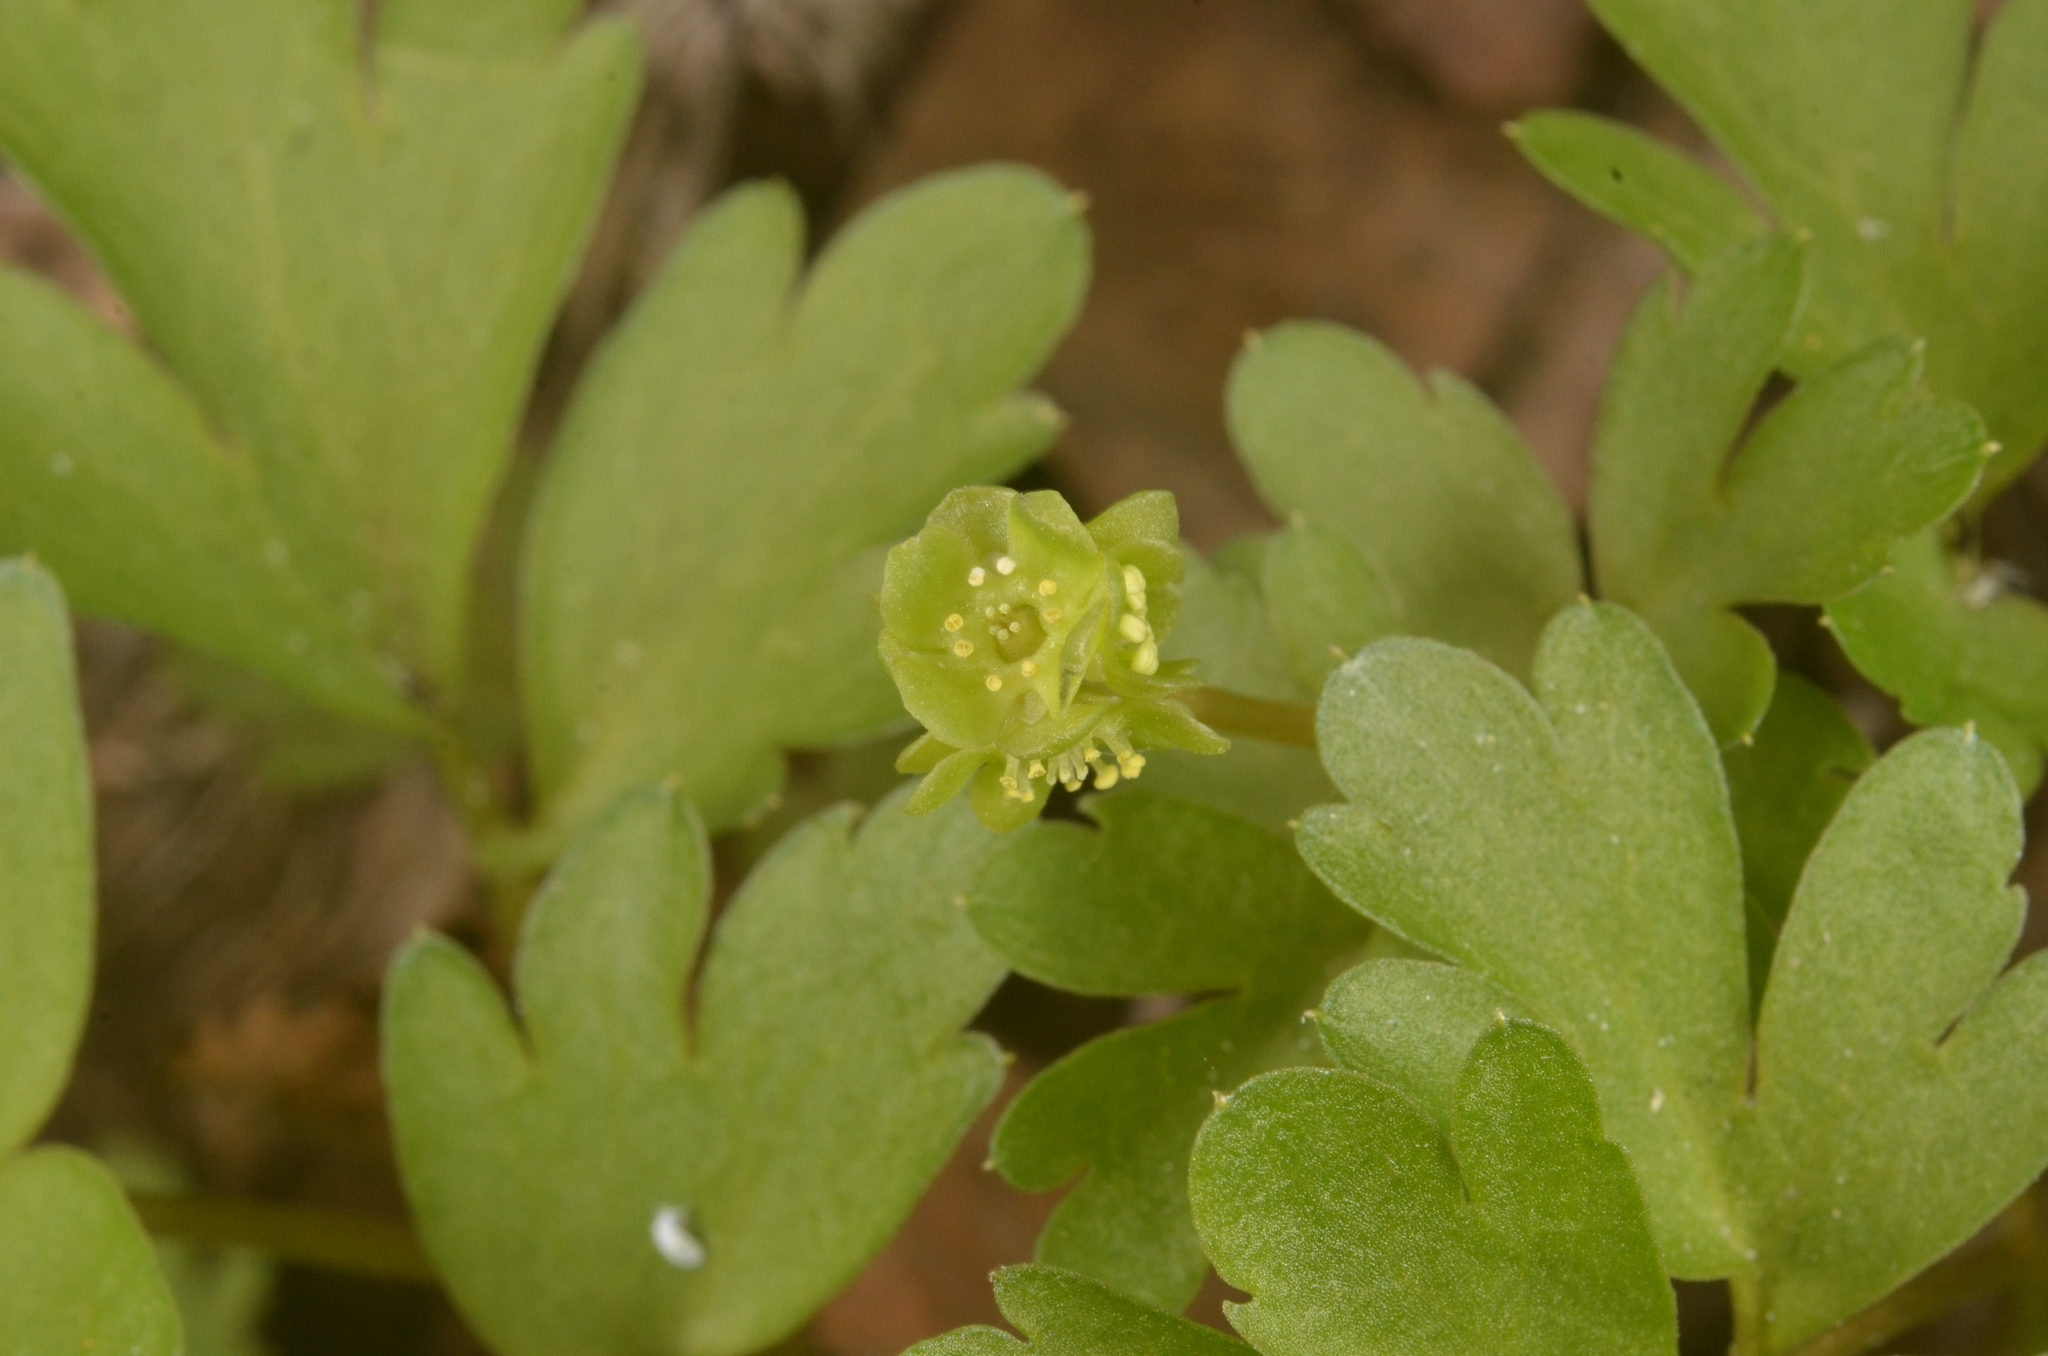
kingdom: Plantae
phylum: Tracheophyta
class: Magnoliopsida
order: Dipsacales
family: Viburnaceae
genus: Adoxa
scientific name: Adoxa moschatellina
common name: Moschatel
